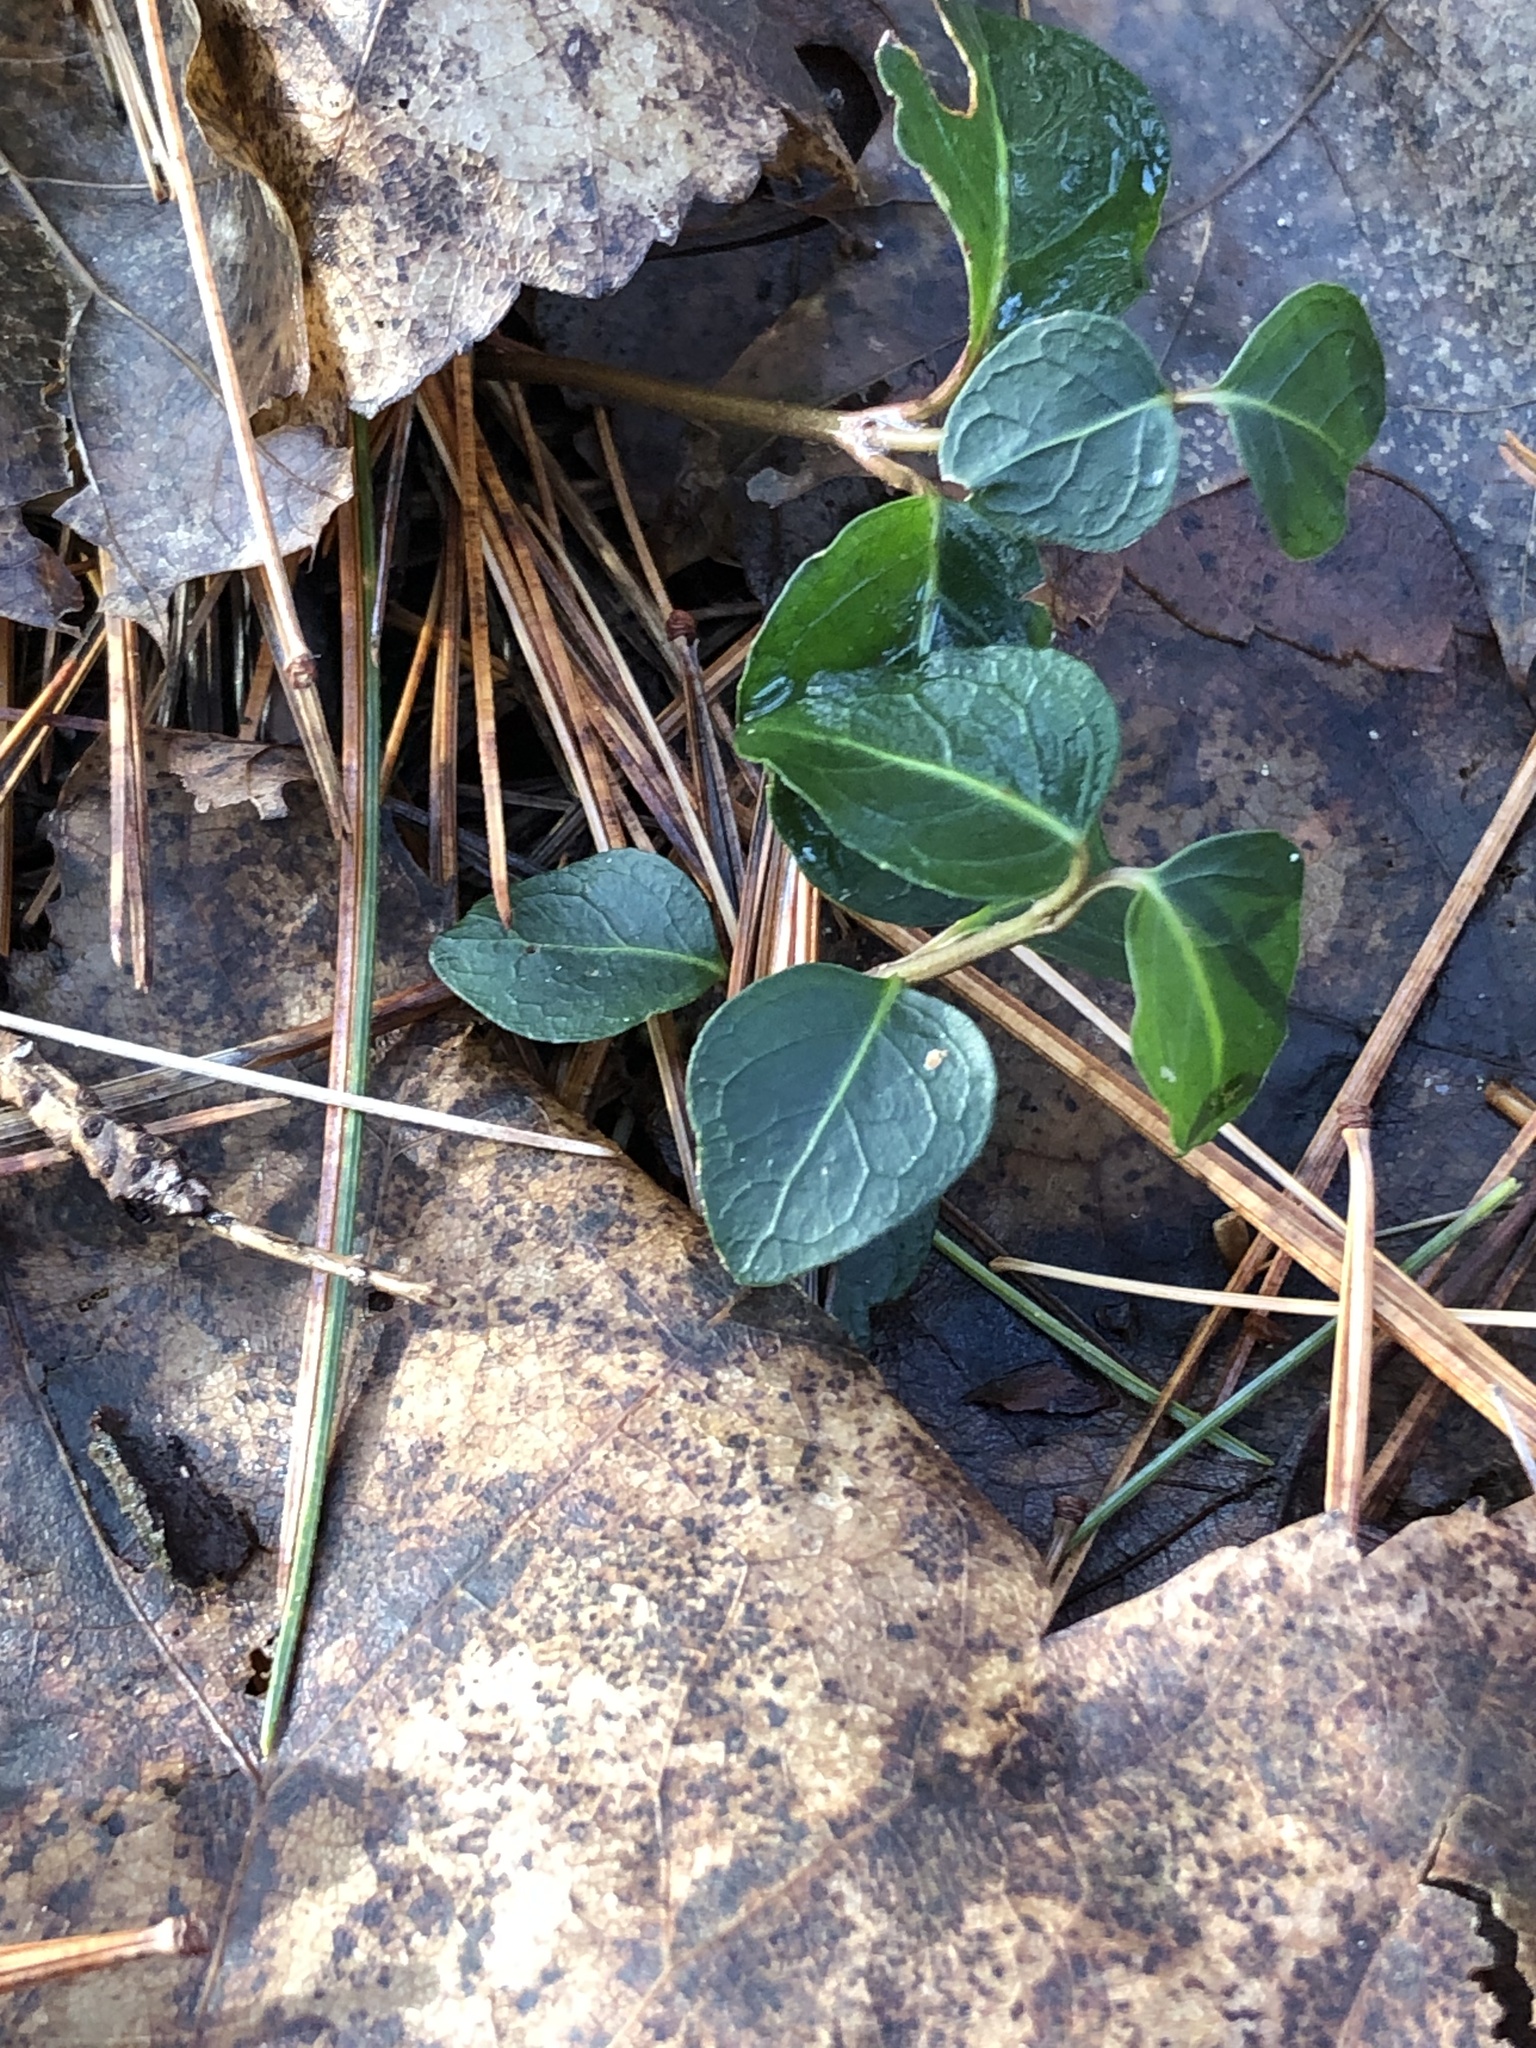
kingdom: Plantae
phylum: Tracheophyta
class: Magnoliopsida
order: Gentianales
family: Rubiaceae
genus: Mitchella
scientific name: Mitchella repens
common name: Partridge-berry
